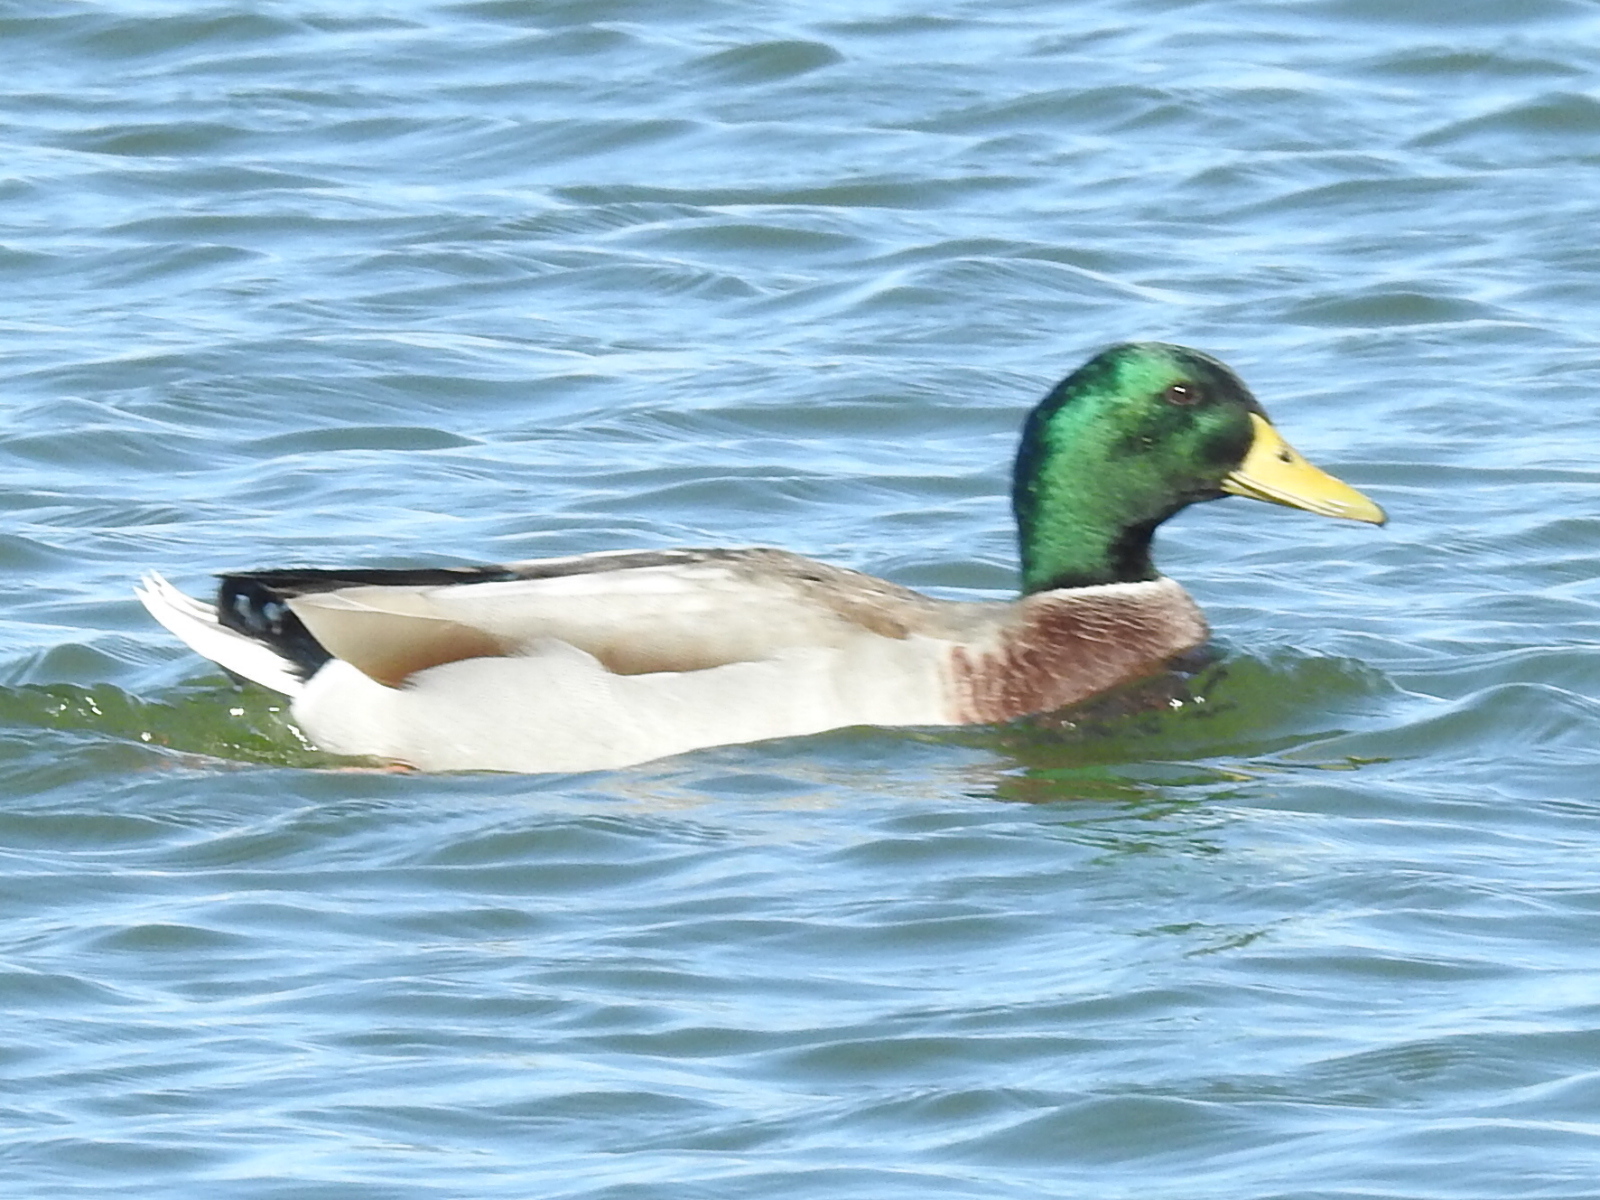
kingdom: Animalia
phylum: Chordata
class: Aves
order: Anseriformes
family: Anatidae
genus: Anas
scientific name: Anas platyrhynchos
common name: Mallard
